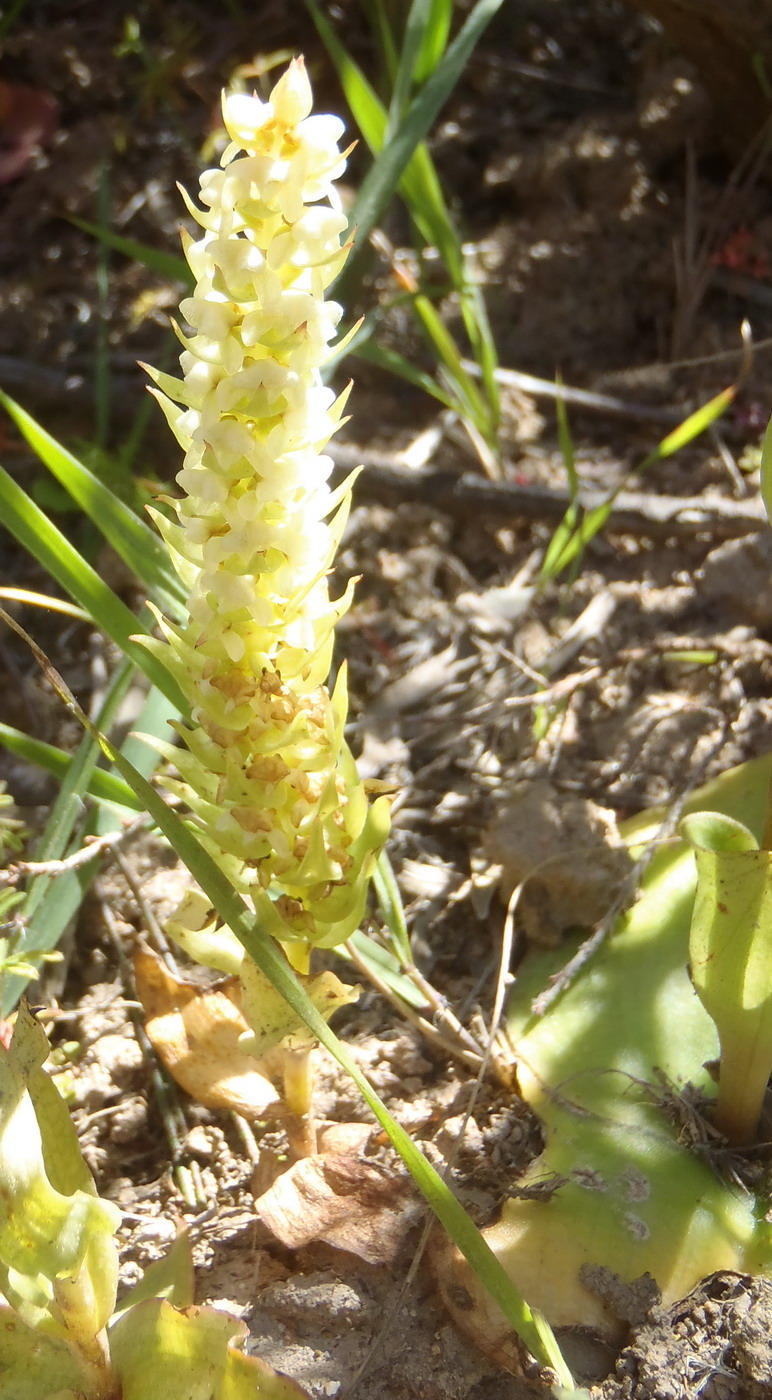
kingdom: Plantae
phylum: Tracheophyta
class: Liliopsida
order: Asparagales
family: Orchidaceae
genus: Satyrium
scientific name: Satyrium bicallosum
